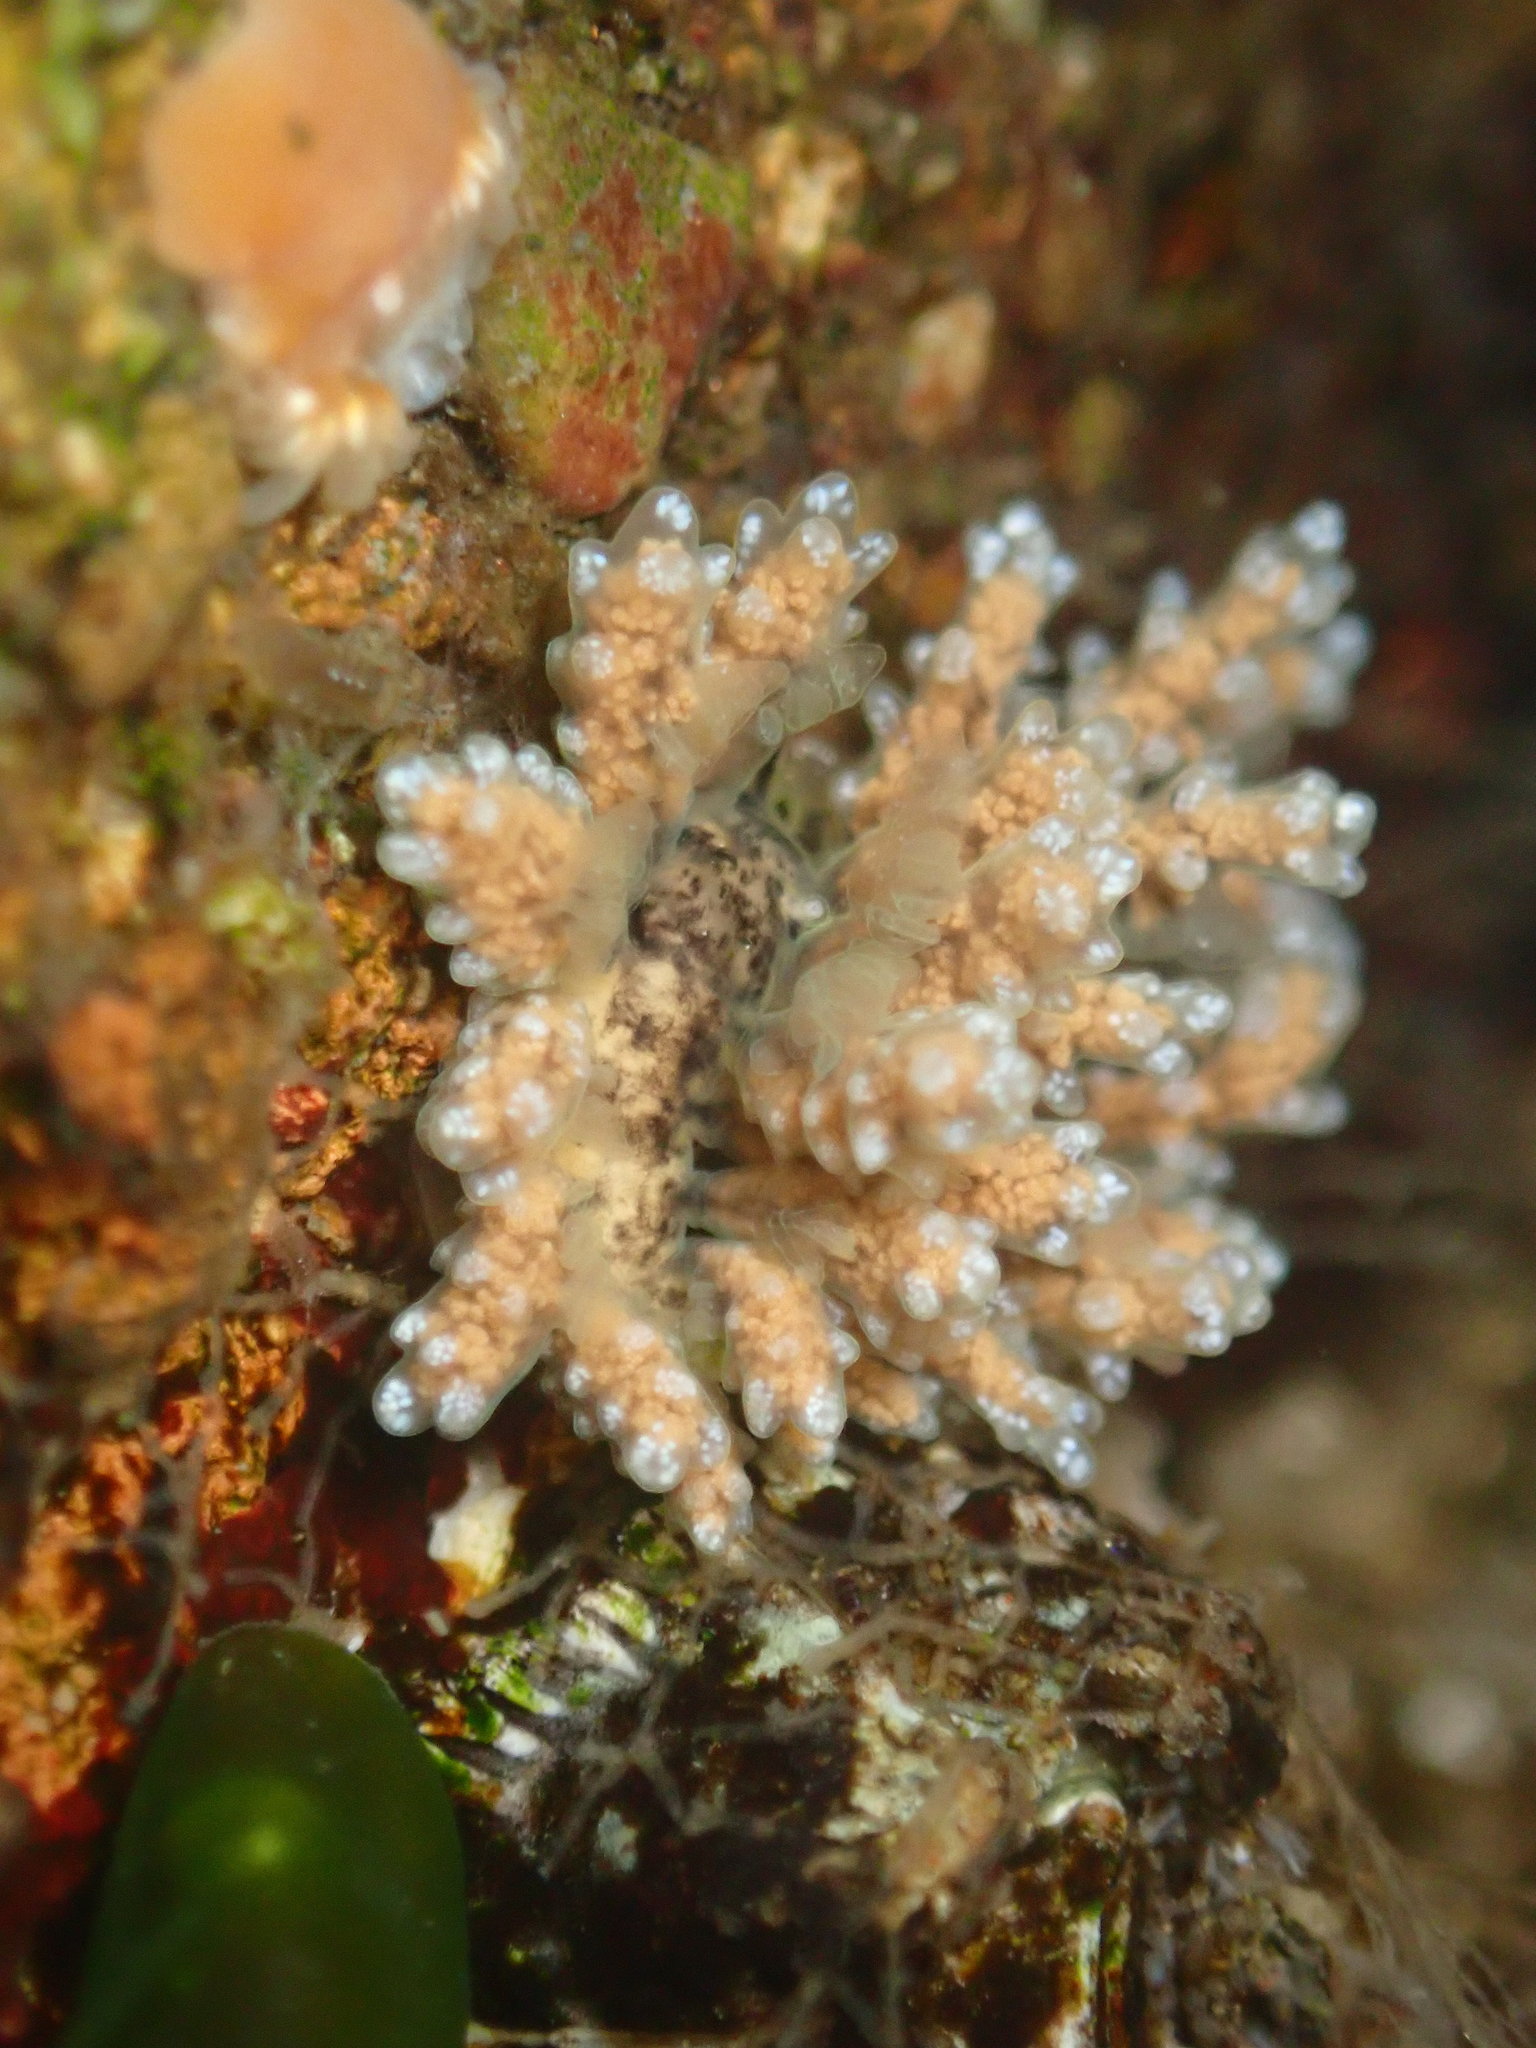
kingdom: Animalia
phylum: Mollusca
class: Gastropoda
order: Nudibranchia
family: Dotidae
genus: Doto
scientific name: Doto kya
